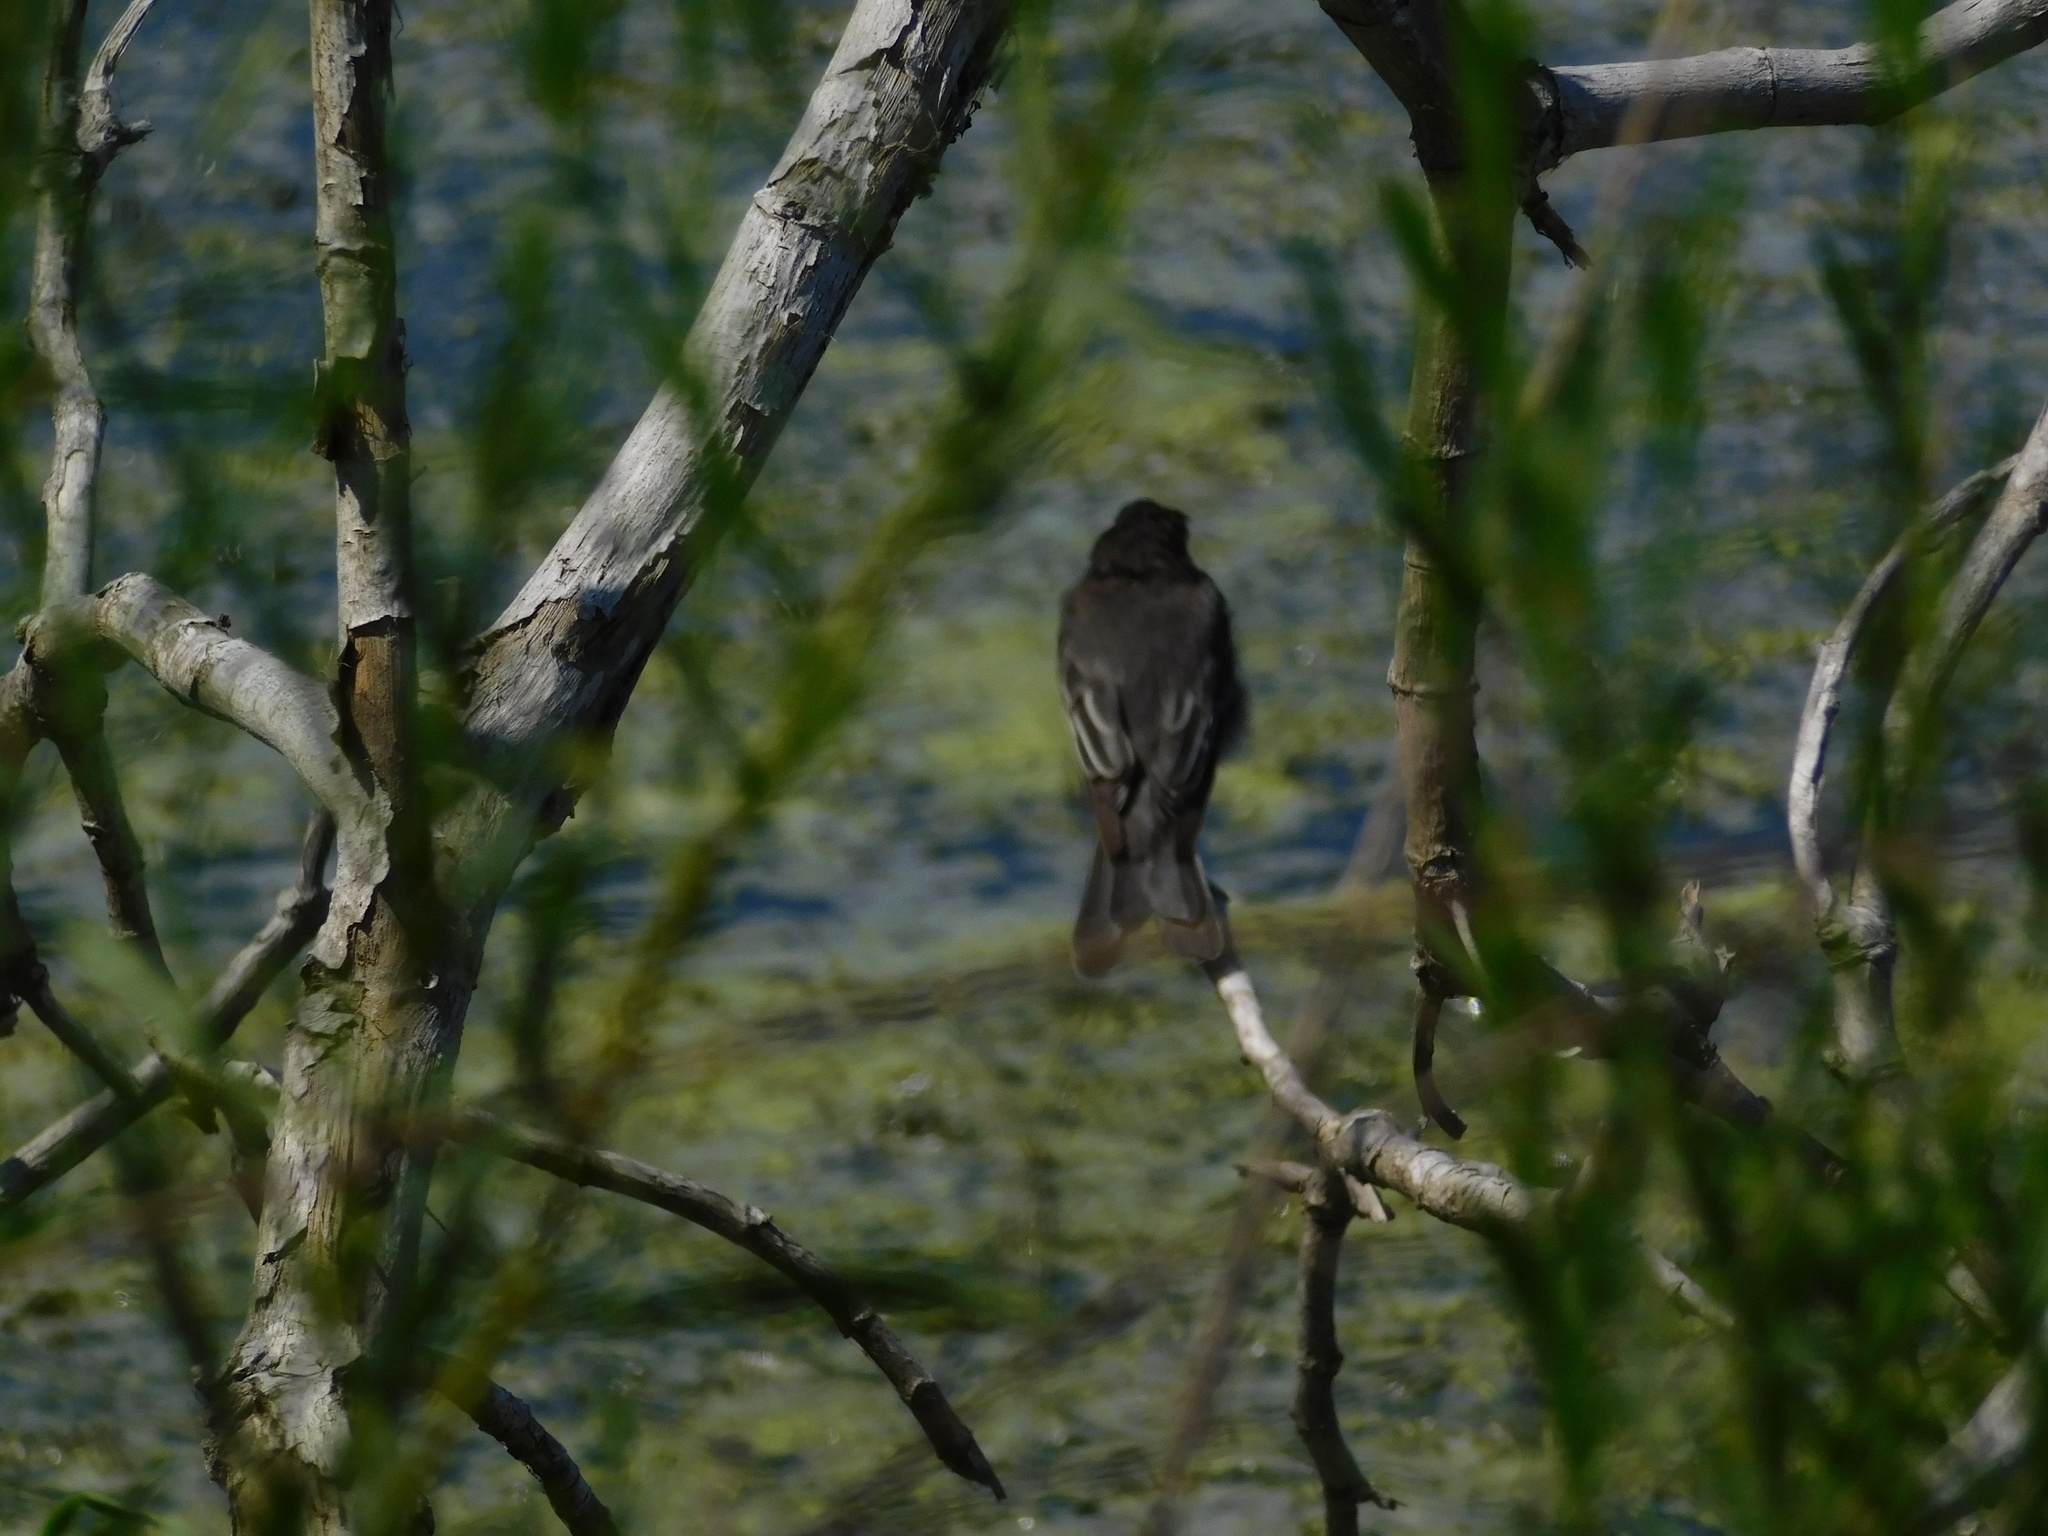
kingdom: Animalia
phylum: Chordata
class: Aves
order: Passeriformes
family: Tyrannidae
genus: Sayornis
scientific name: Sayornis nigricans
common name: Black phoebe
